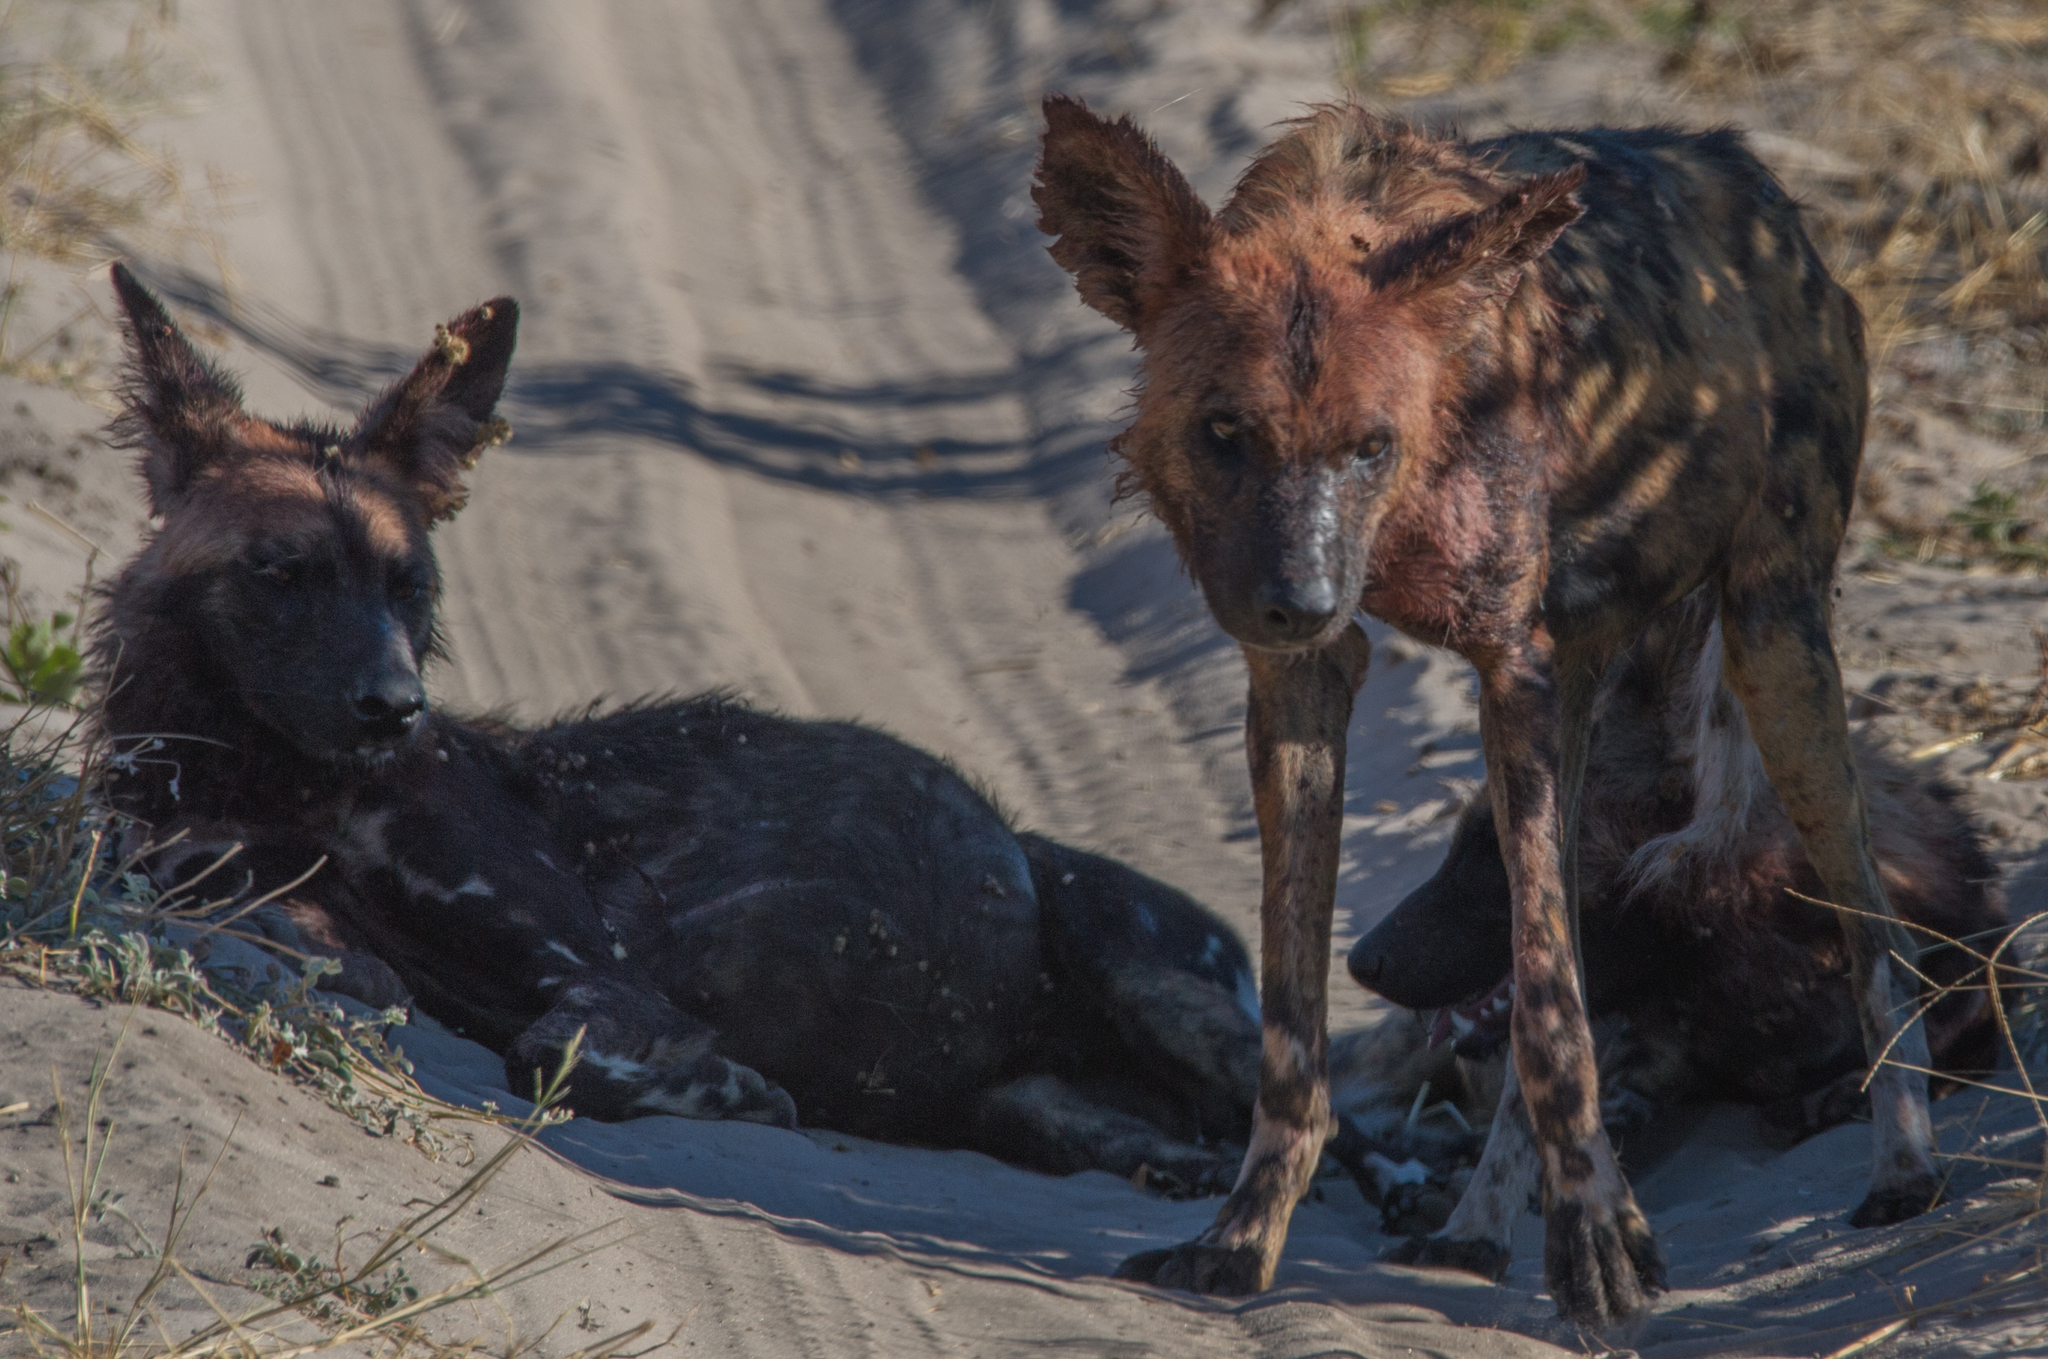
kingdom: Animalia
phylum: Chordata
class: Mammalia
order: Carnivora
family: Canidae
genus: Lycaon
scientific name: Lycaon pictus
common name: African wild dog
